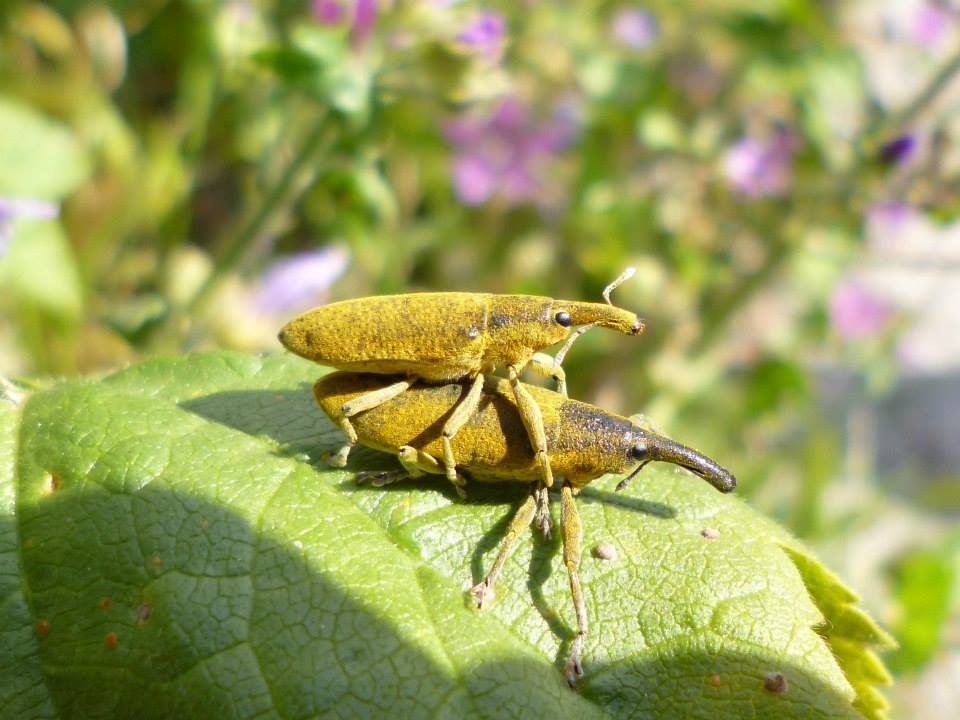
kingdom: Animalia
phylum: Arthropoda
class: Insecta
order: Coleoptera
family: Curculionidae
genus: Lixus
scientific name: Lixus pulverulentus
